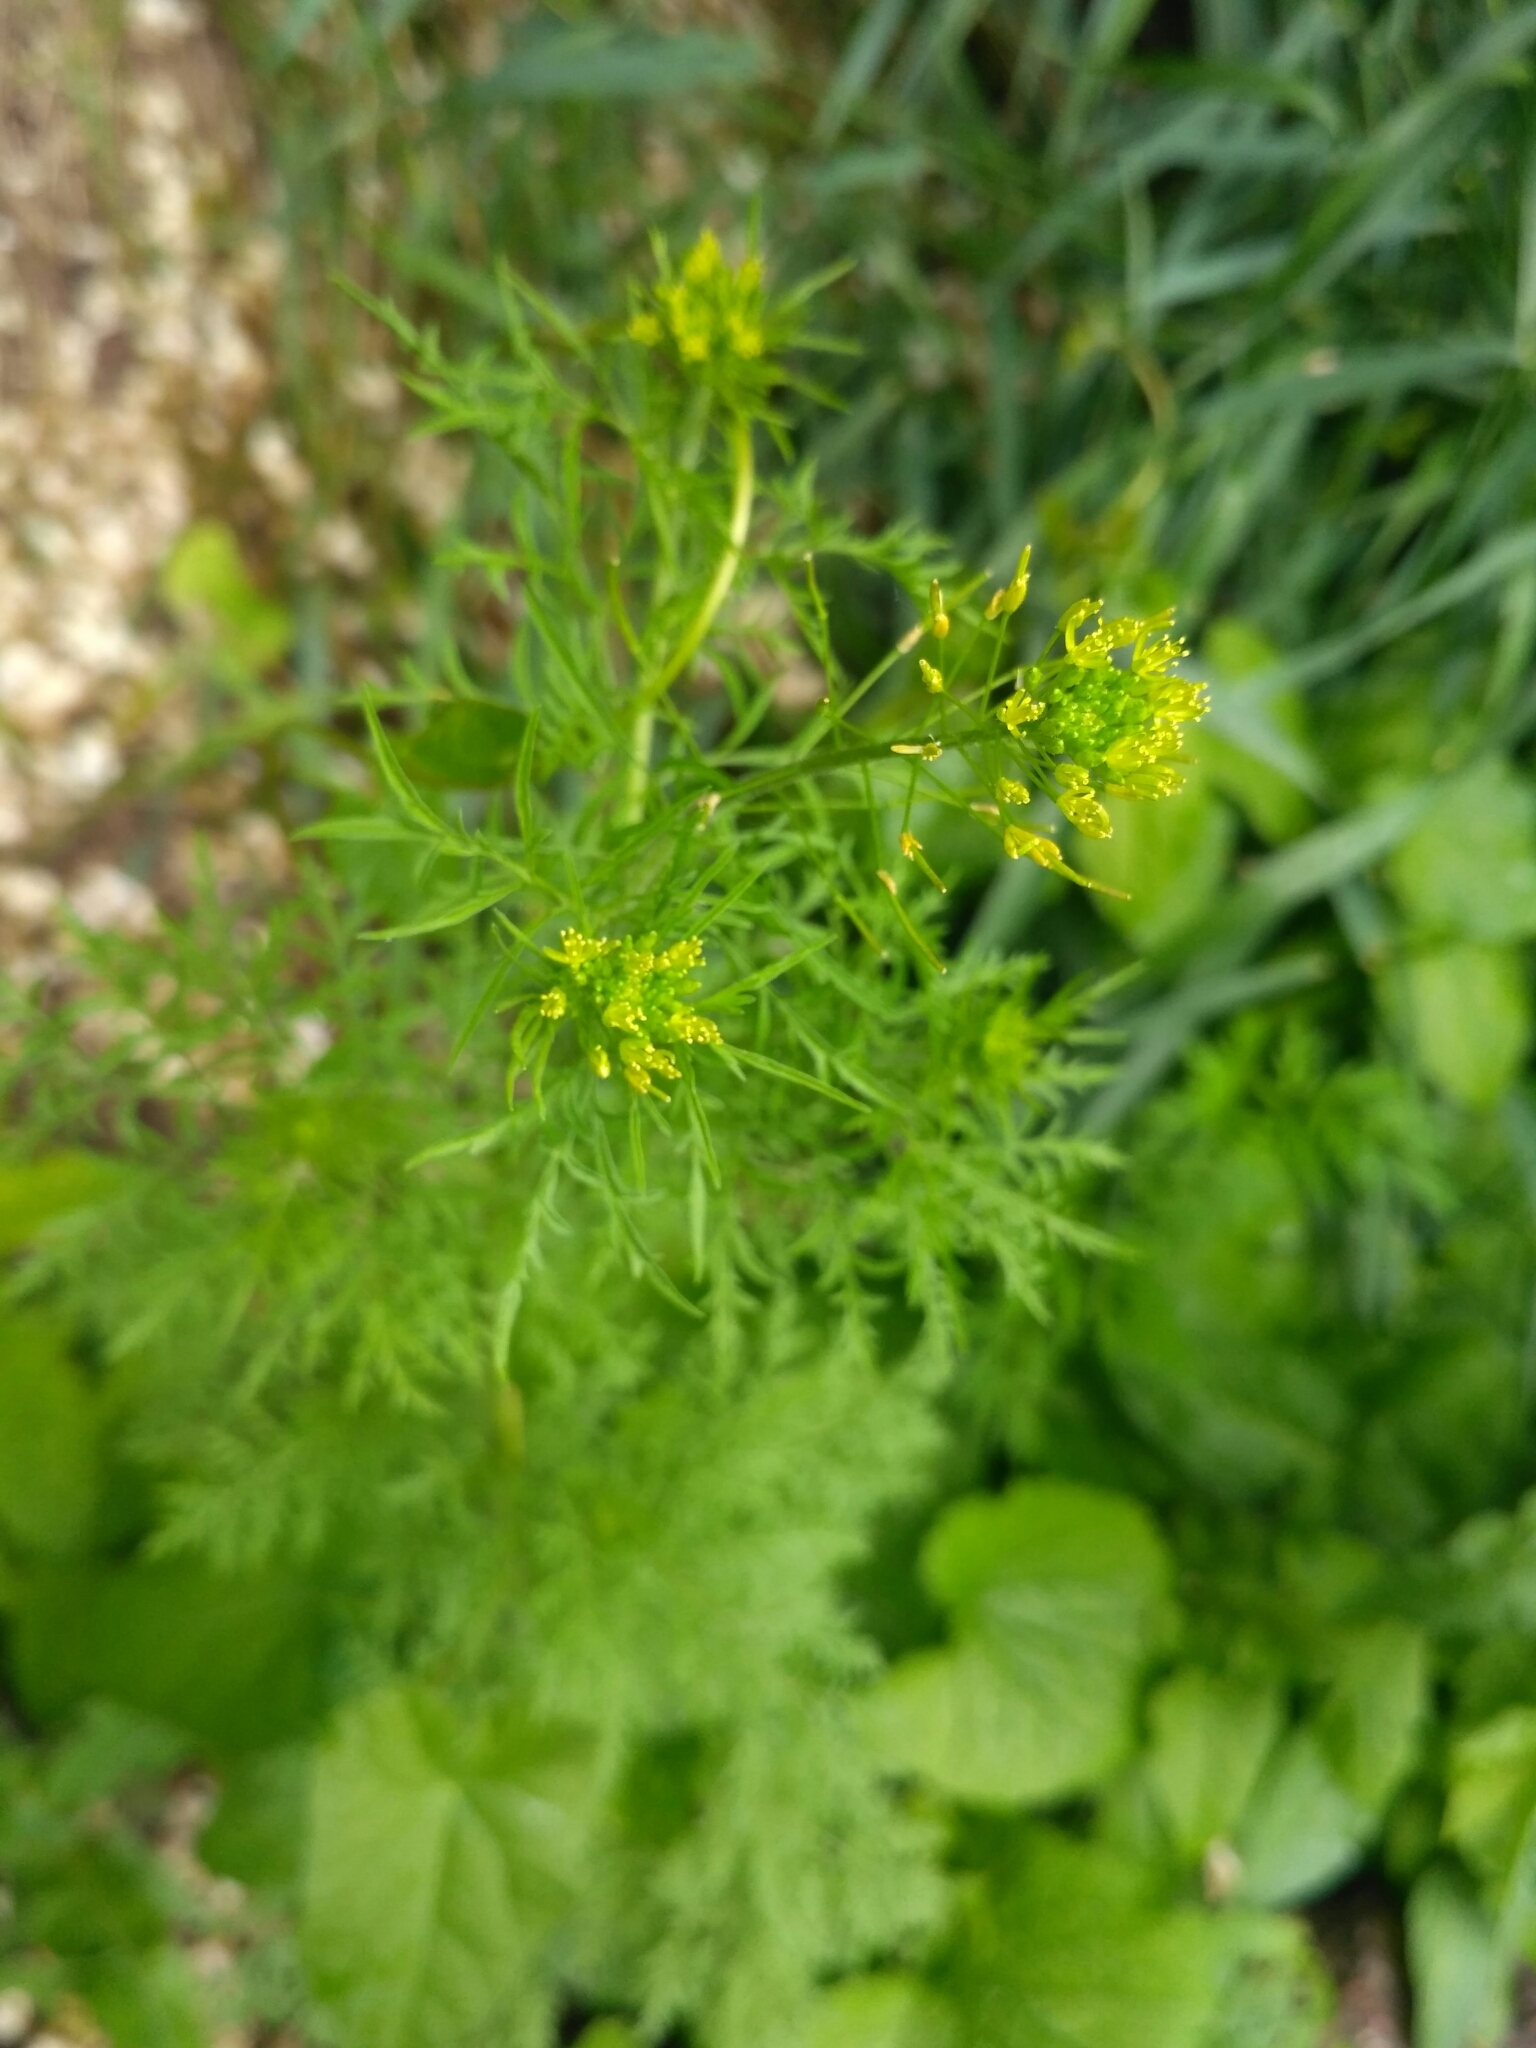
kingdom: Plantae
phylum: Tracheophyta
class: Magnoliopsida
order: Brassicales
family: Brassicaceae
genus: Descurainia
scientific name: Descurainia sophia
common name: Flixweed
